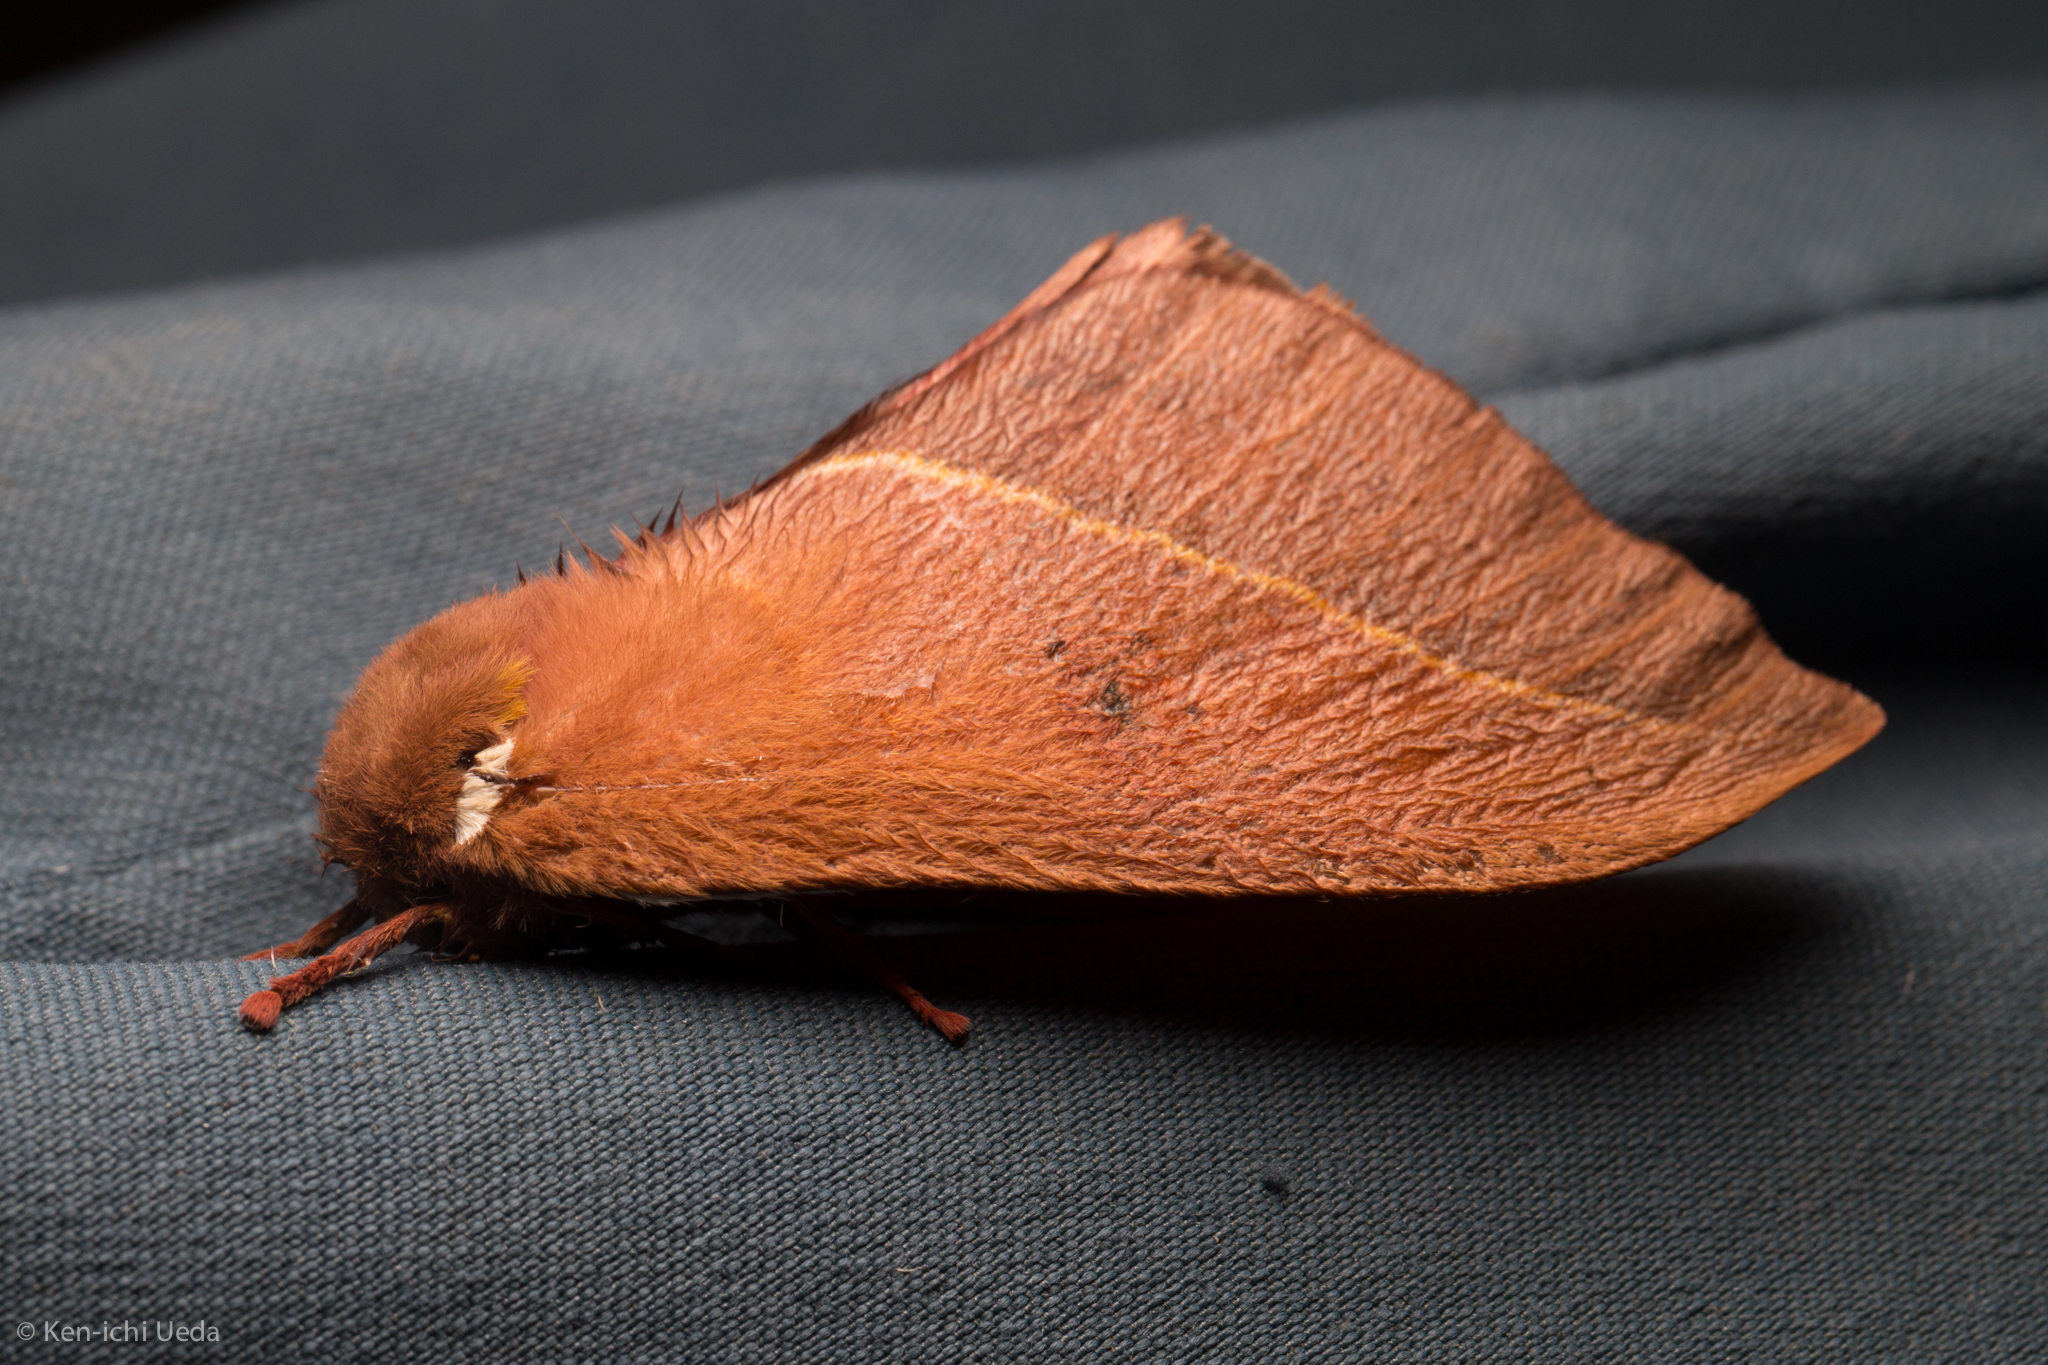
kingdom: Animalia
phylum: Arthropoda
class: Insecta
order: Lepidoptera
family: Saturniidae
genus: Automeris
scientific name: Automeris cecrops
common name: Cecrops eyed silkmoth
